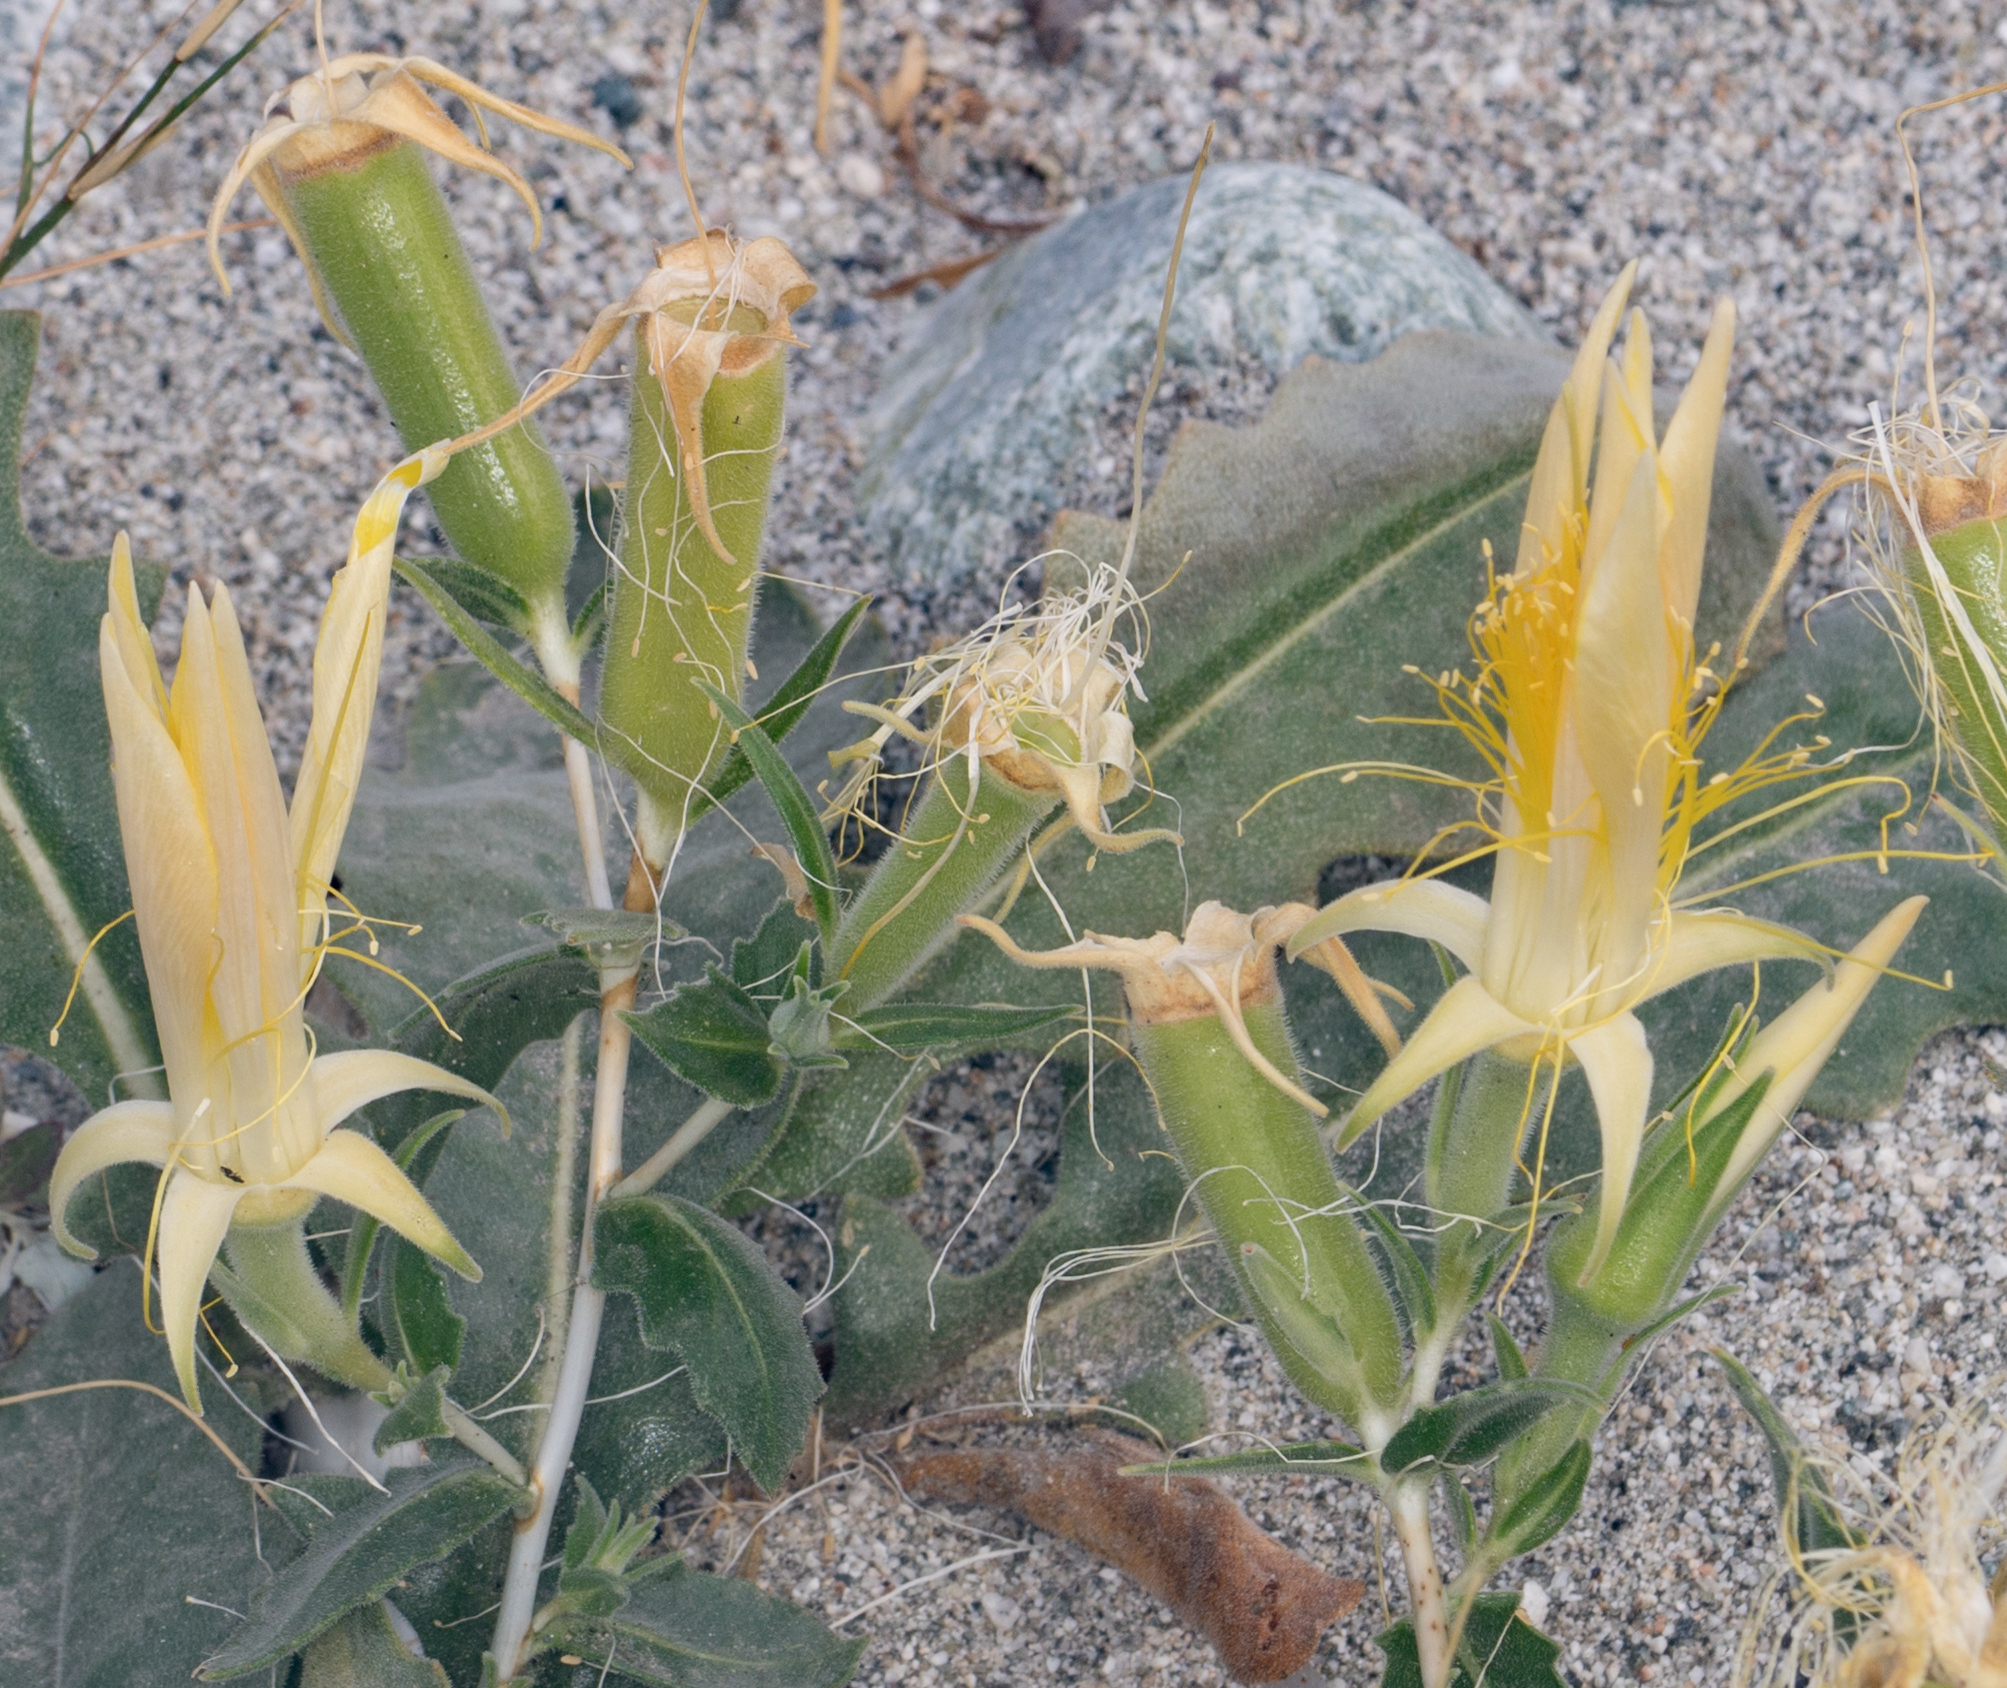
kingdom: Plantae
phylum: Tracheophyta
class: Magnoliopsida
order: Cornales
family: Loasaceae
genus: Mentzelia
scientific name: Mentzelia laevicaulis
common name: Smooth-stem blazingstar
